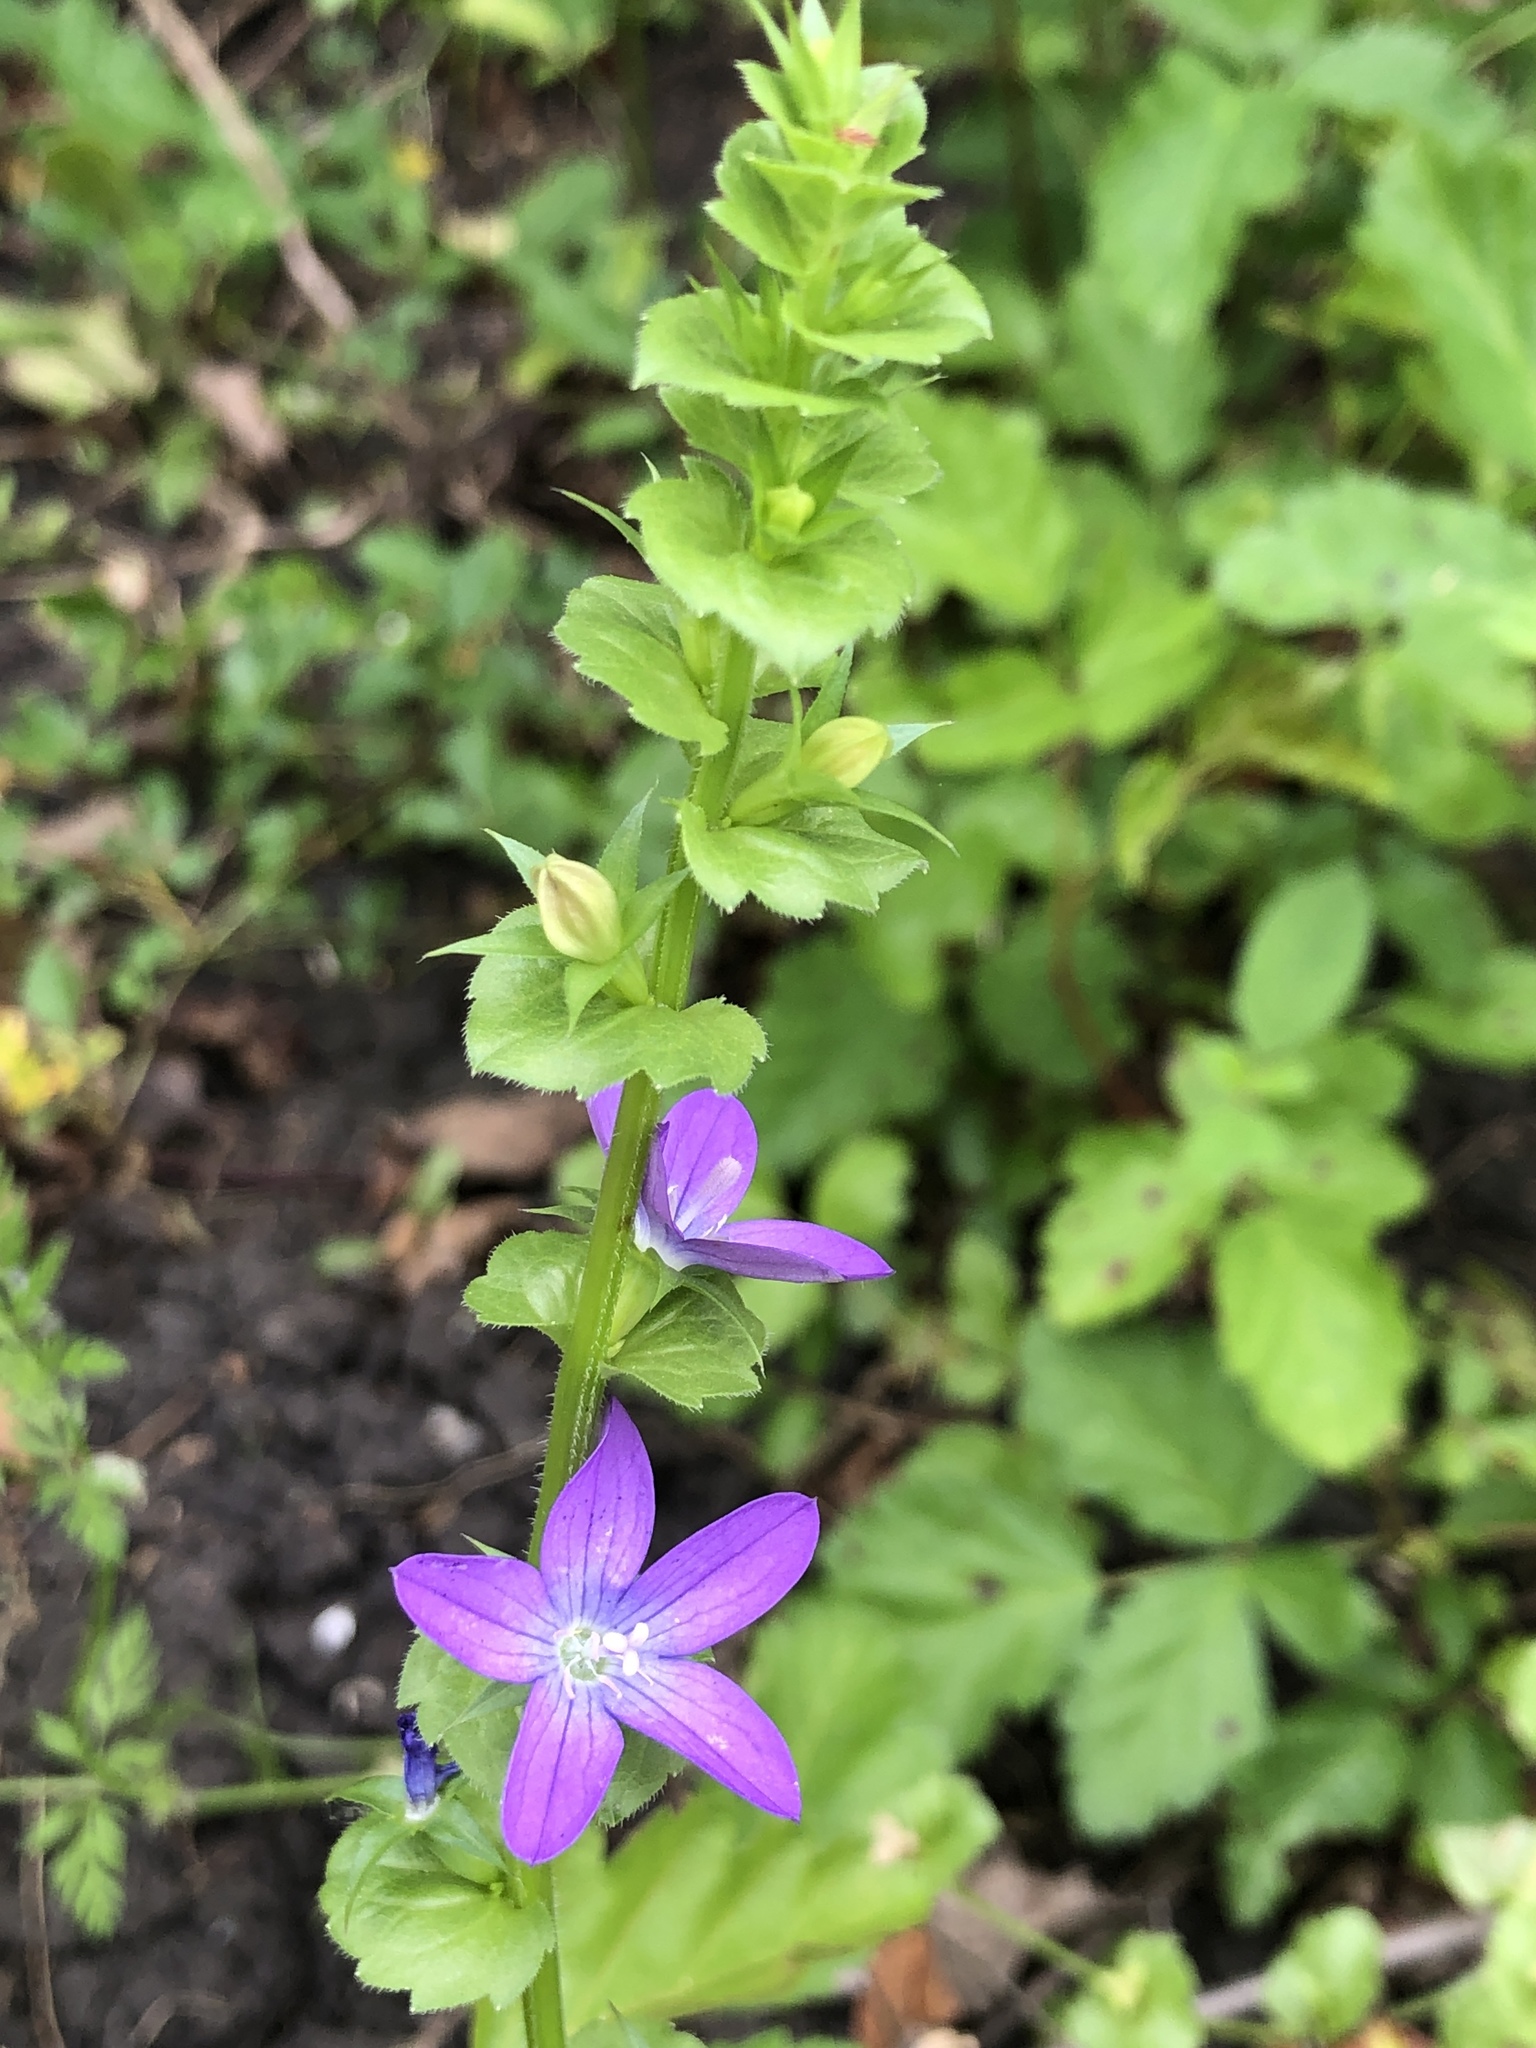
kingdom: Plantae
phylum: Tracheophyta
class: Magnoliopsida
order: Asterales
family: Campanulaceae
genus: Triodanis
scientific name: Triodanis perfoliata
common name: Clasping venus' looking-glass
